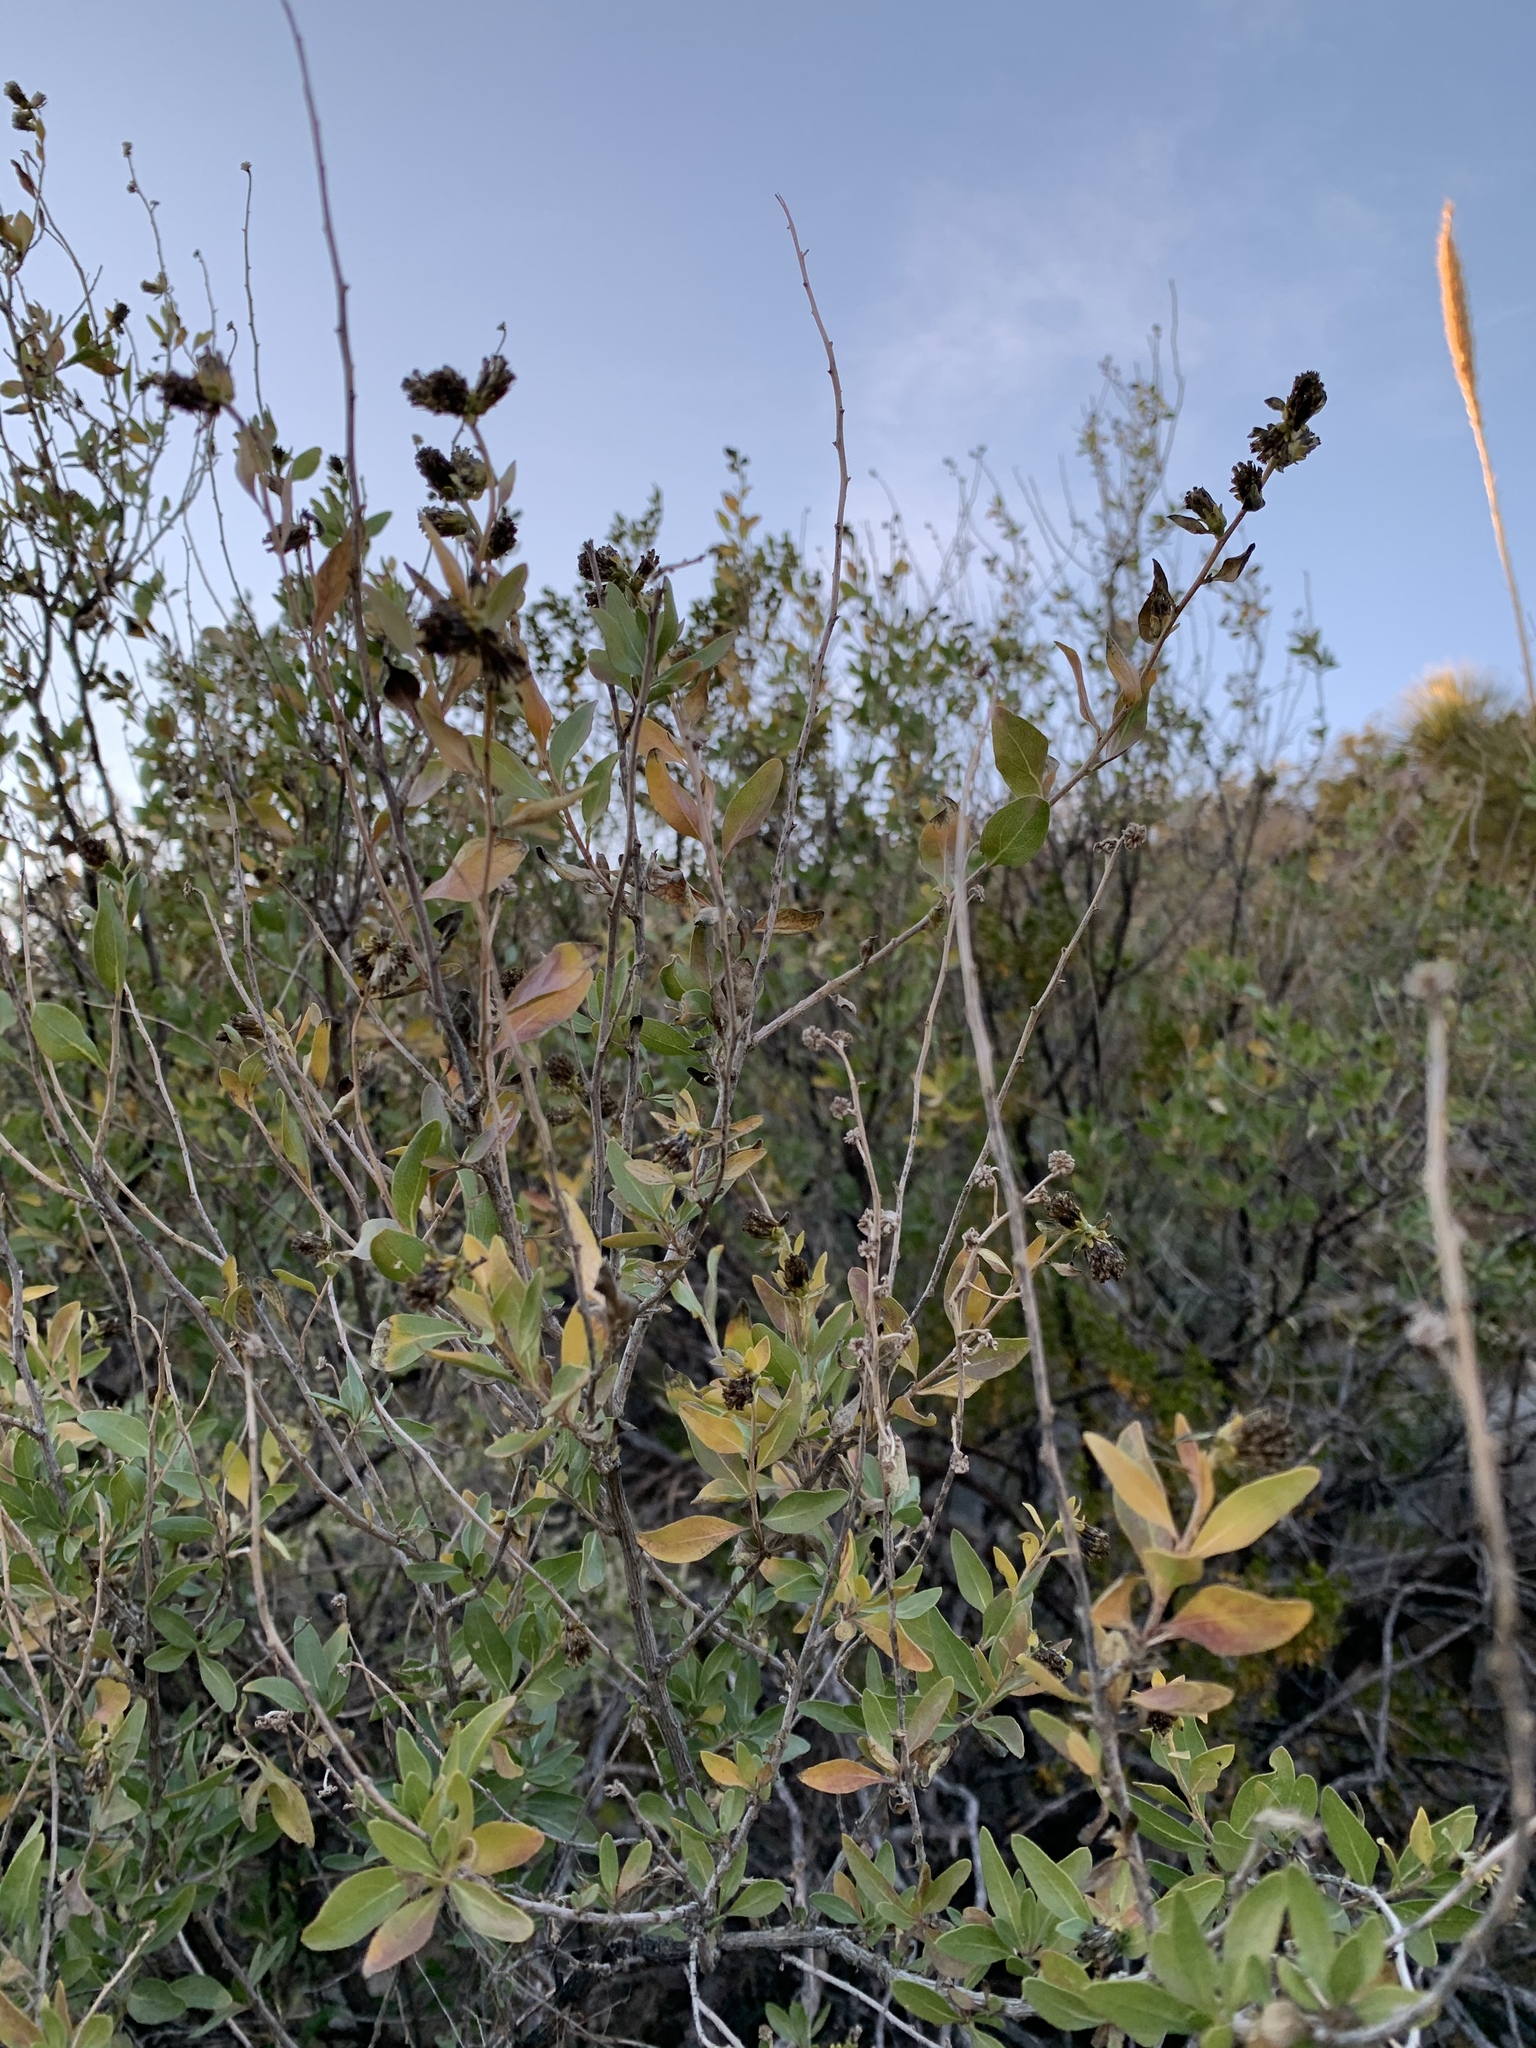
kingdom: Plantae
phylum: Tracheophyta
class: Magnoliopsida
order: Asterales
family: Asteraceae
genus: Flourensia
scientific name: Flourensia cernua
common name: Varnishbush
